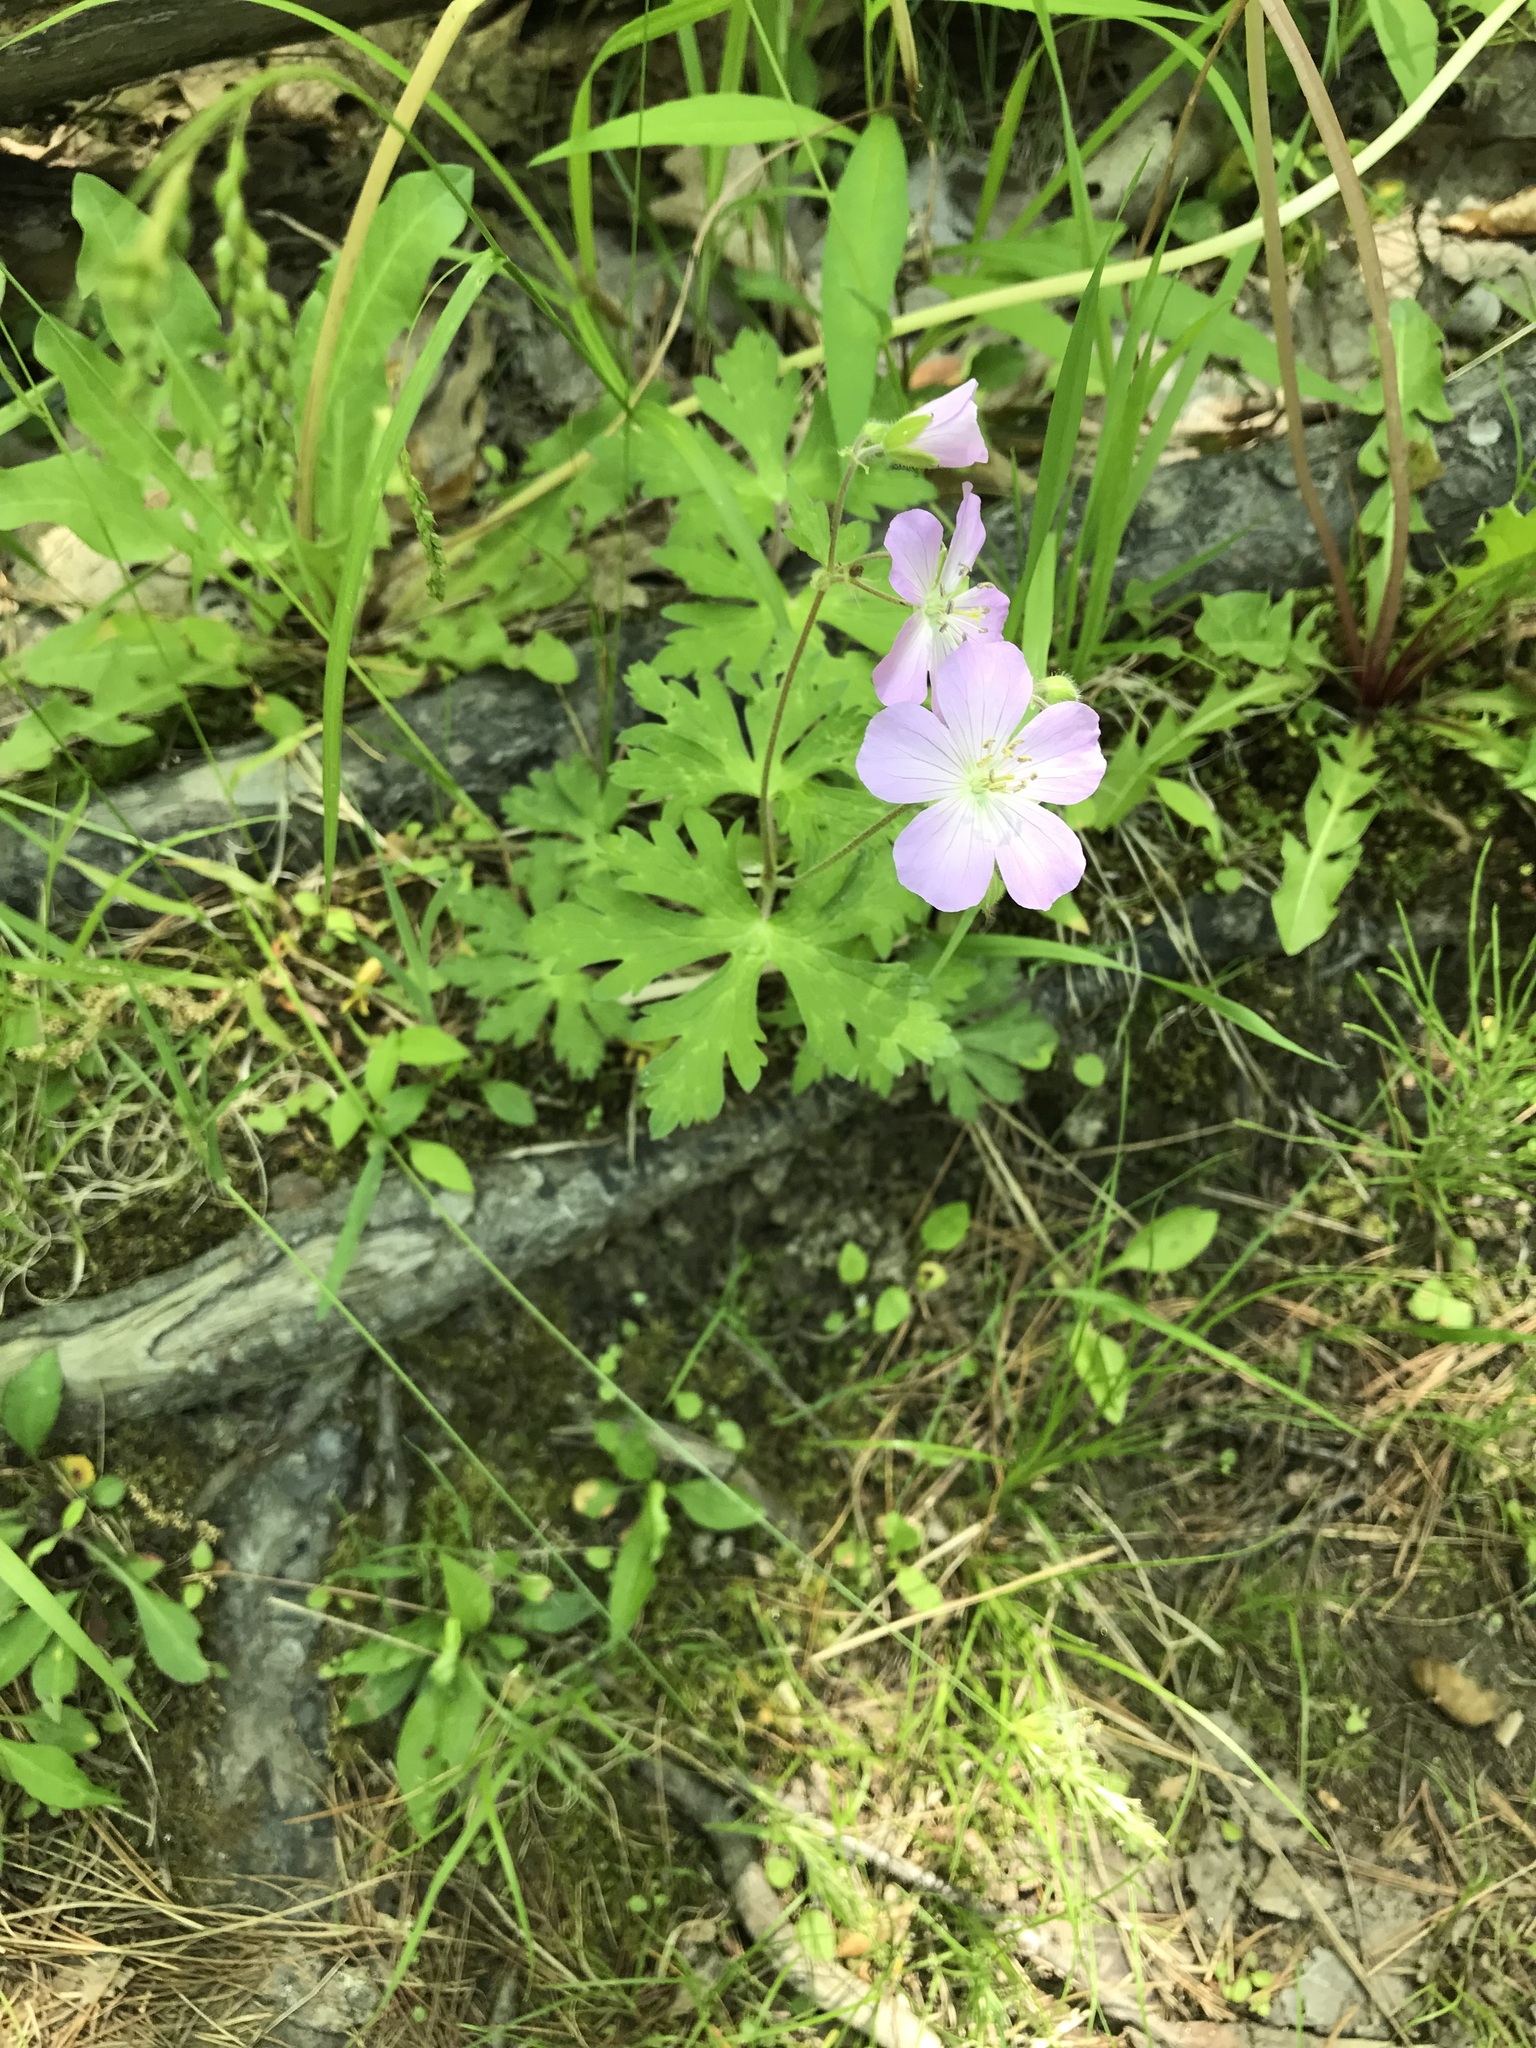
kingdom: Plantae
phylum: Tracheophyta
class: Magnoliopsida
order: Geraniales
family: Geraniaceae
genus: Geranium
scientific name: Geranium maculatum
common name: Spotted geranium
